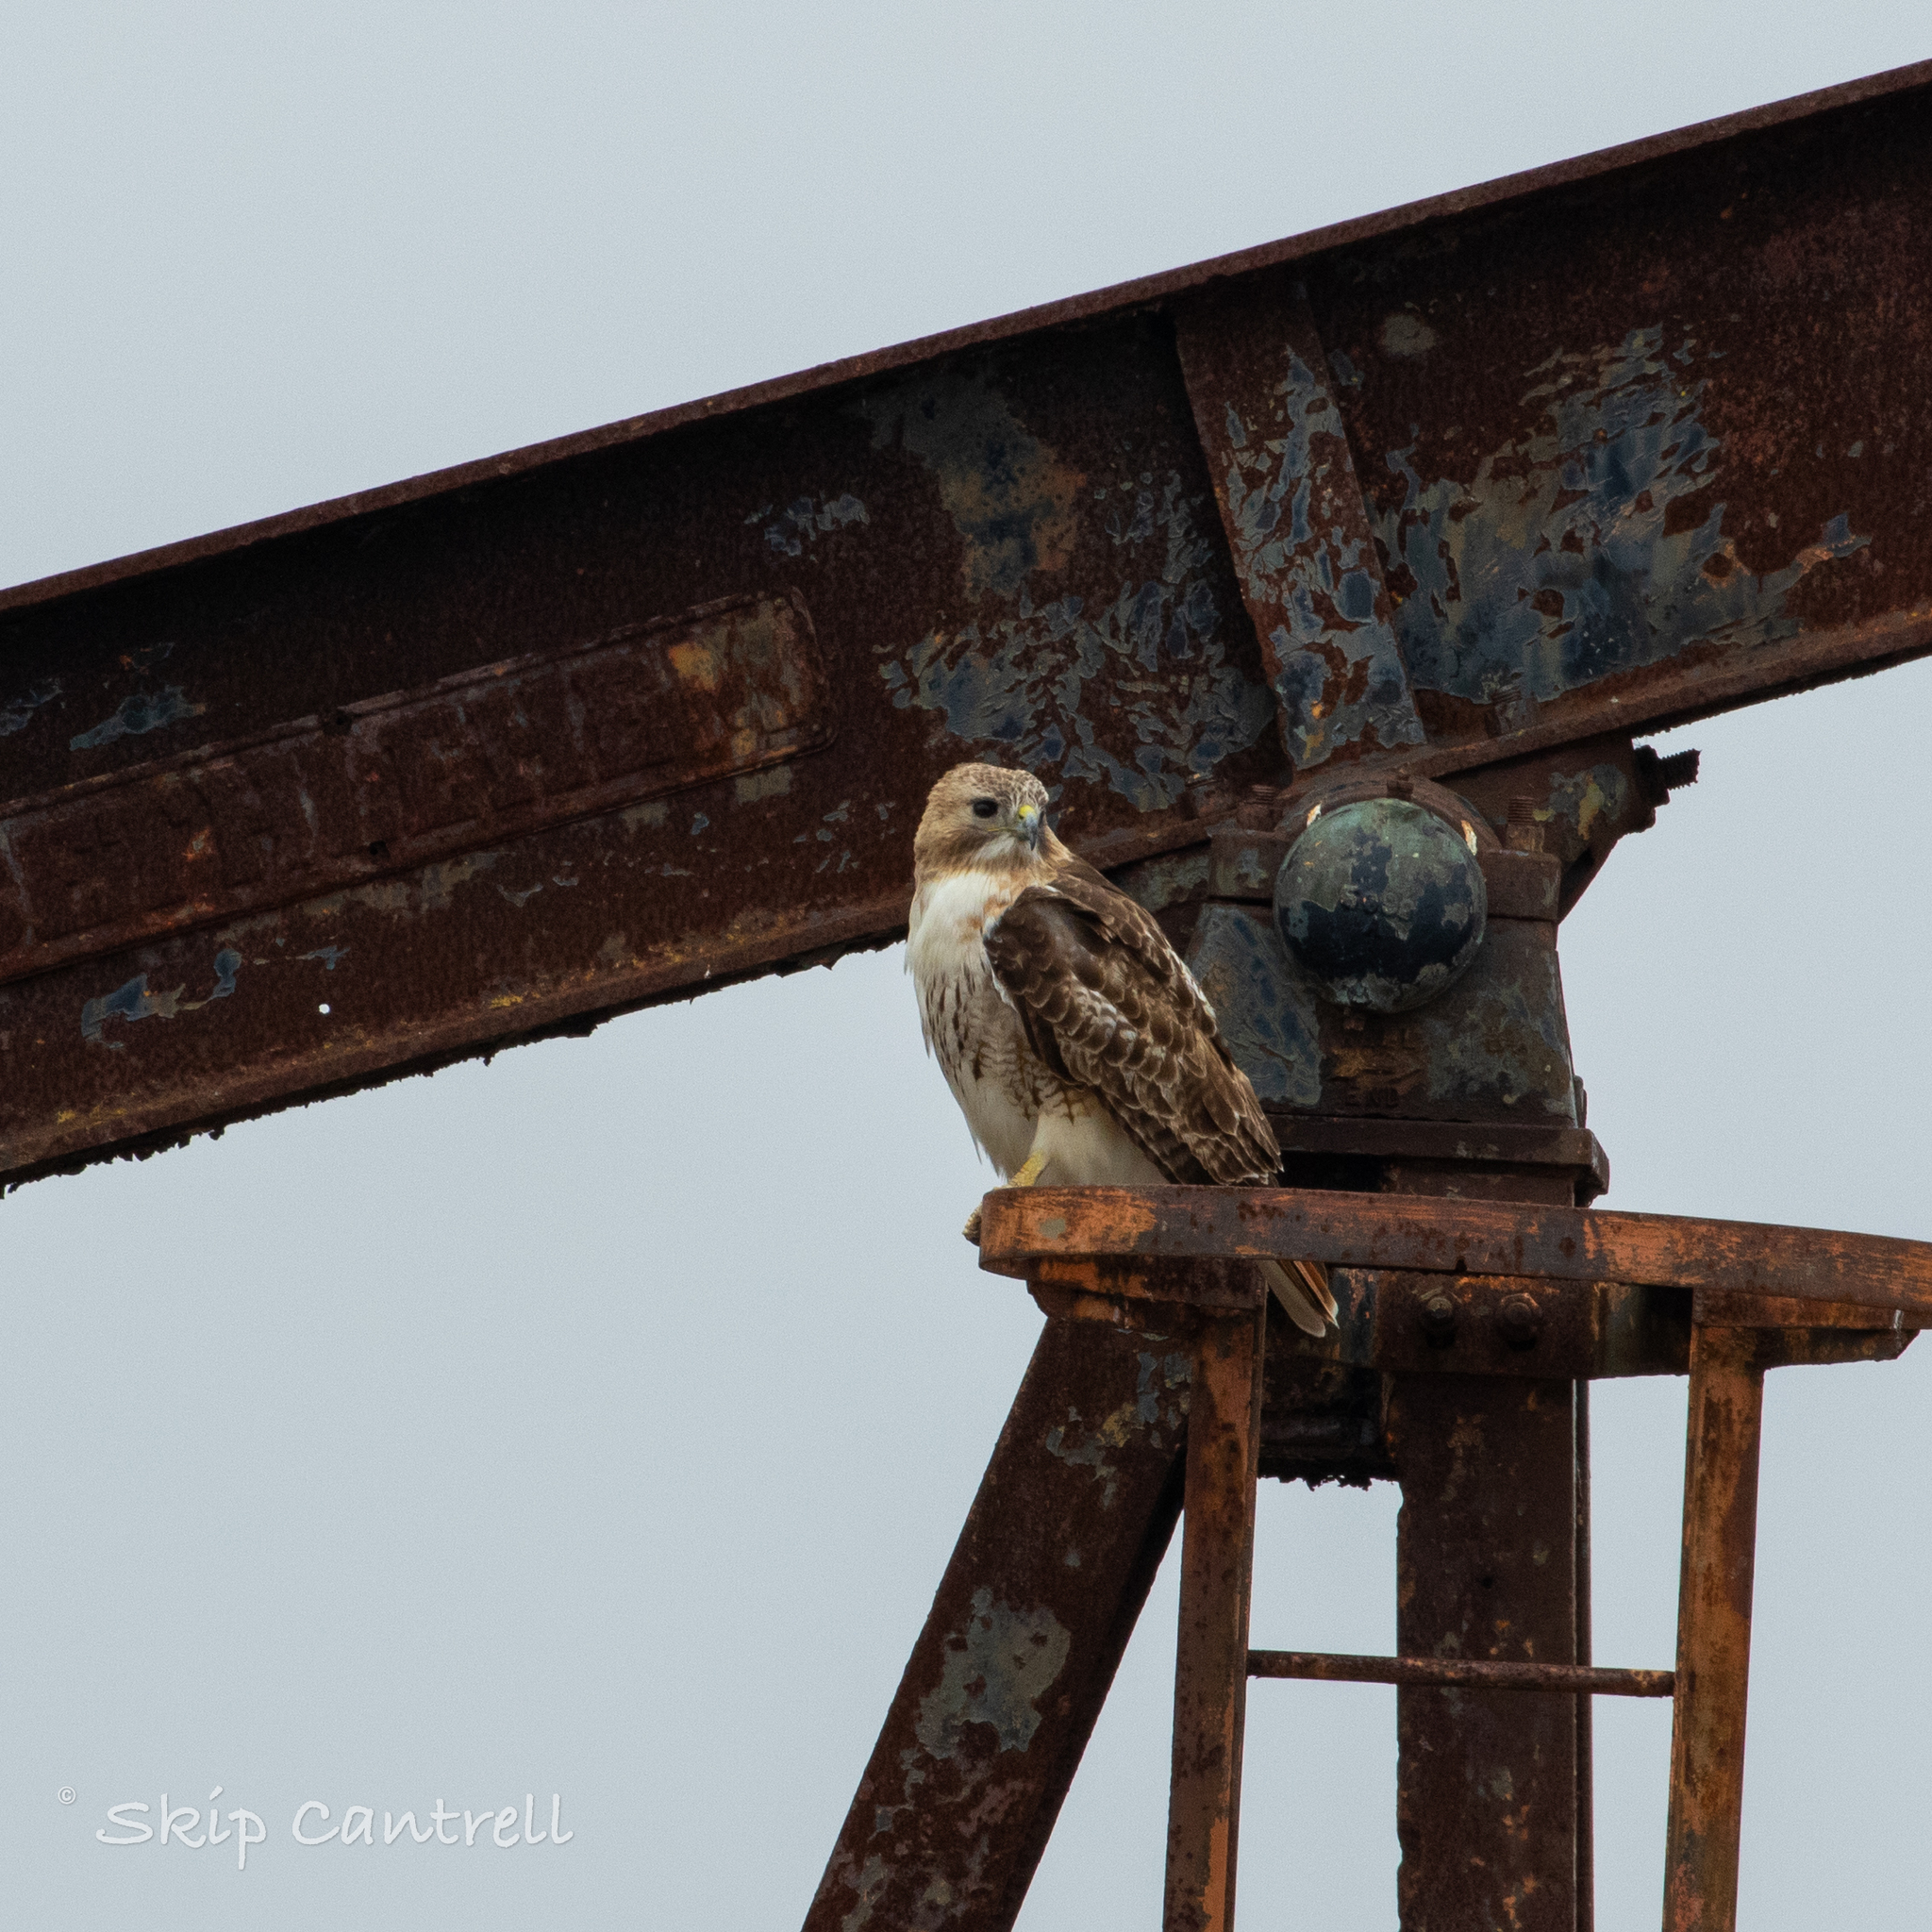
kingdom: Animalia
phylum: Chordata
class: Aves
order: Accipitriformes
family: Accipitridae
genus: Buteo
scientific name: Buteo jamaicensis
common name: Red-tailed hawk
